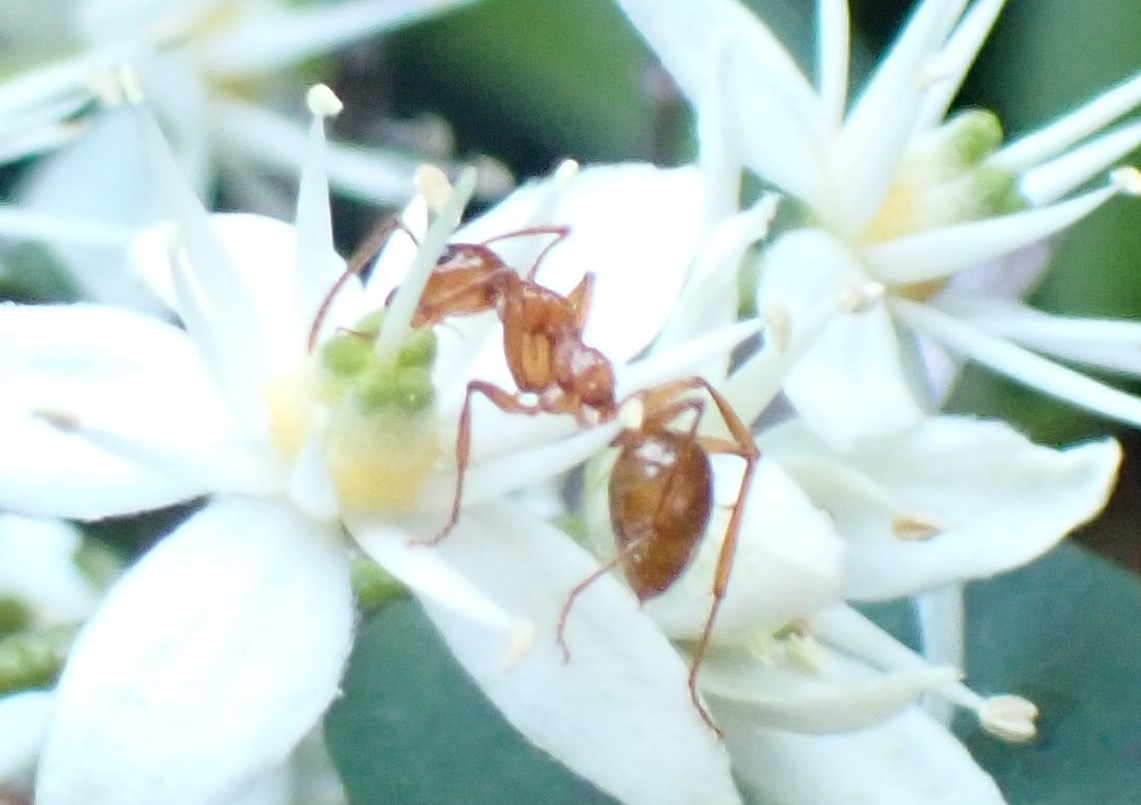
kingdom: Animalia
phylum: Arthropoda
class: Insecta
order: Hymenoptera
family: Formicidae
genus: Notoncus
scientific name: Notoncus spinisquamis
